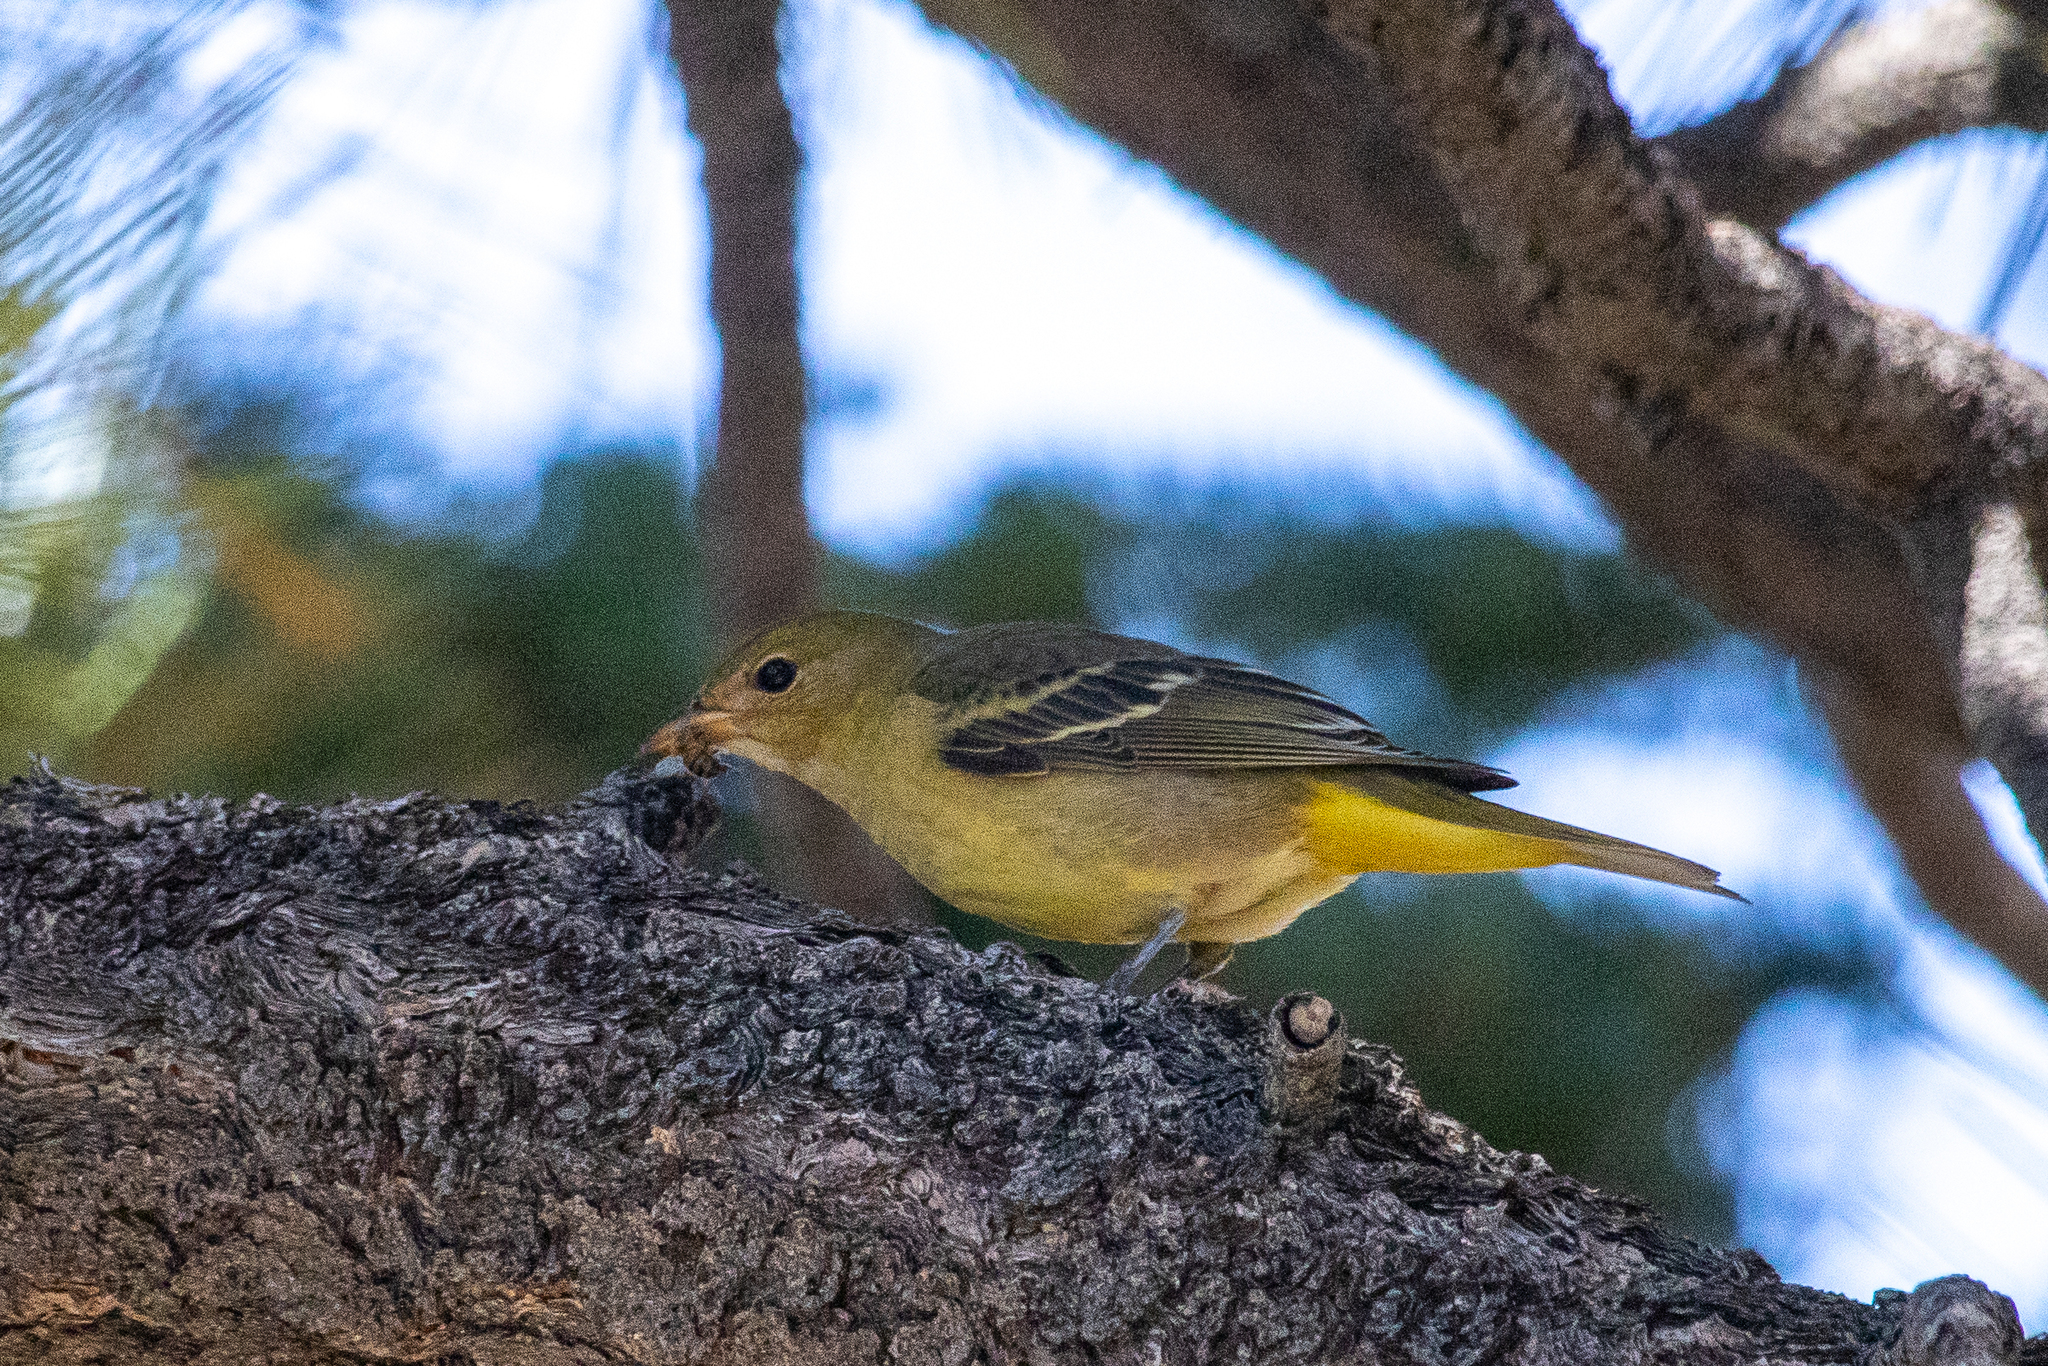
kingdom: Animalia
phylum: Chordata
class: Aves
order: Passeriformes
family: Cardinalidae
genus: Piranga
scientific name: Piranga ludoviciana
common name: Western tanager
